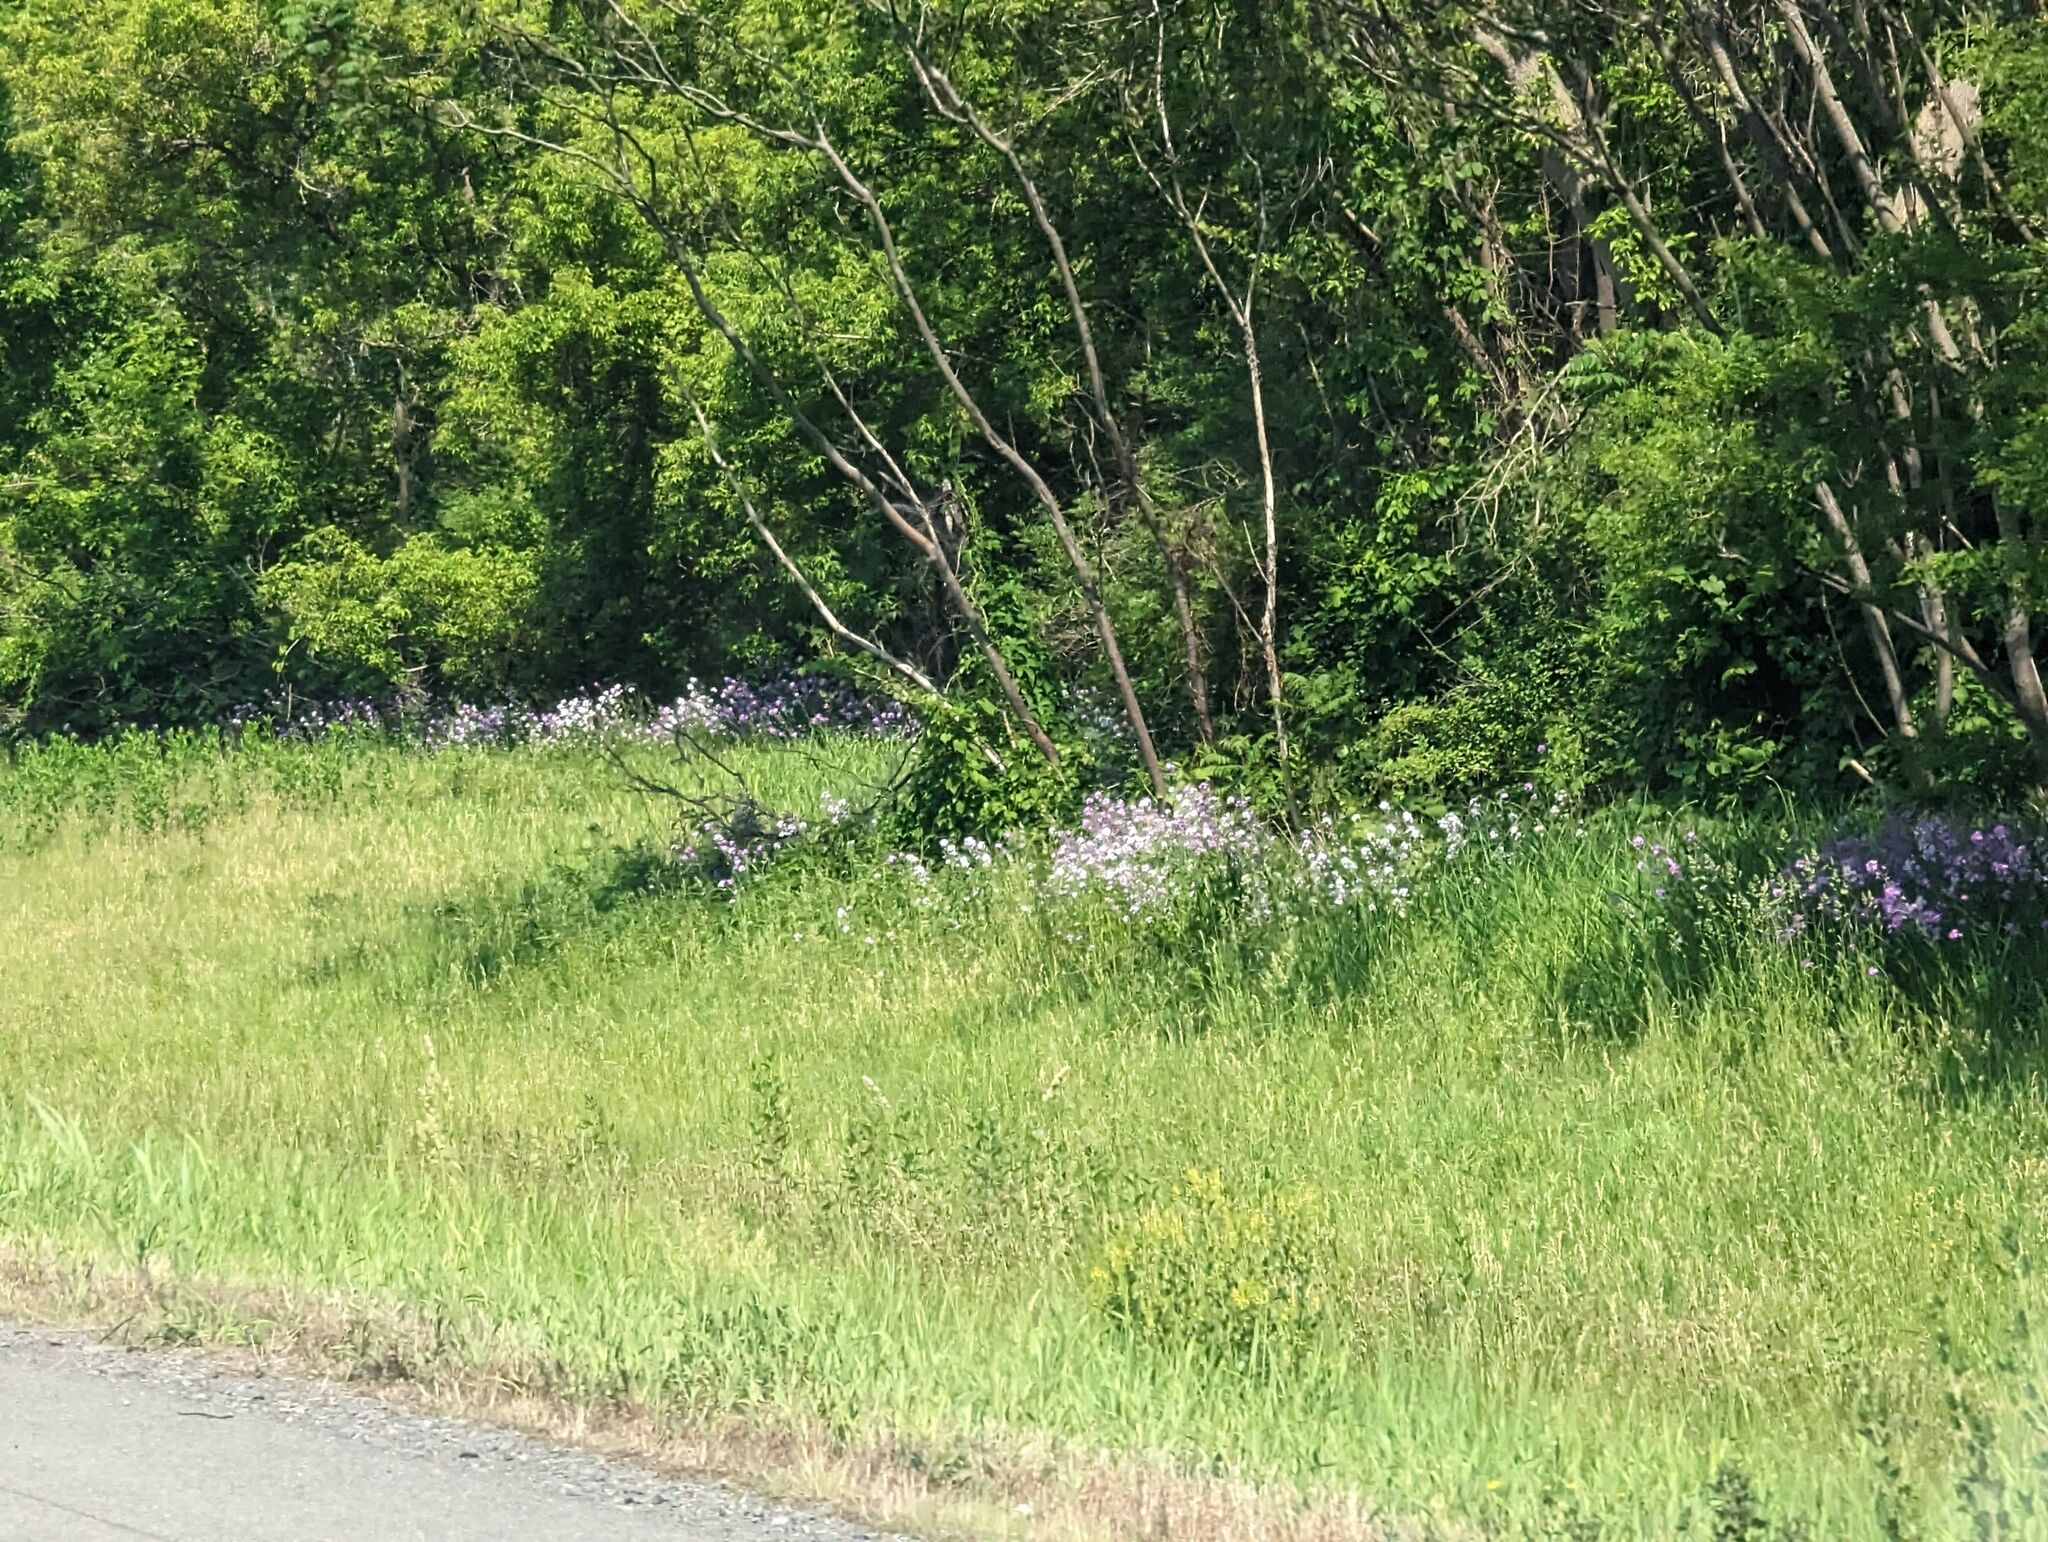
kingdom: Plantae
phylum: Tracheophyta
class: Magnoliopsida
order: Brassicales
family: Brassicaceae
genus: Hesperis
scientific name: Hesperis matronalis
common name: Dame's-violet
